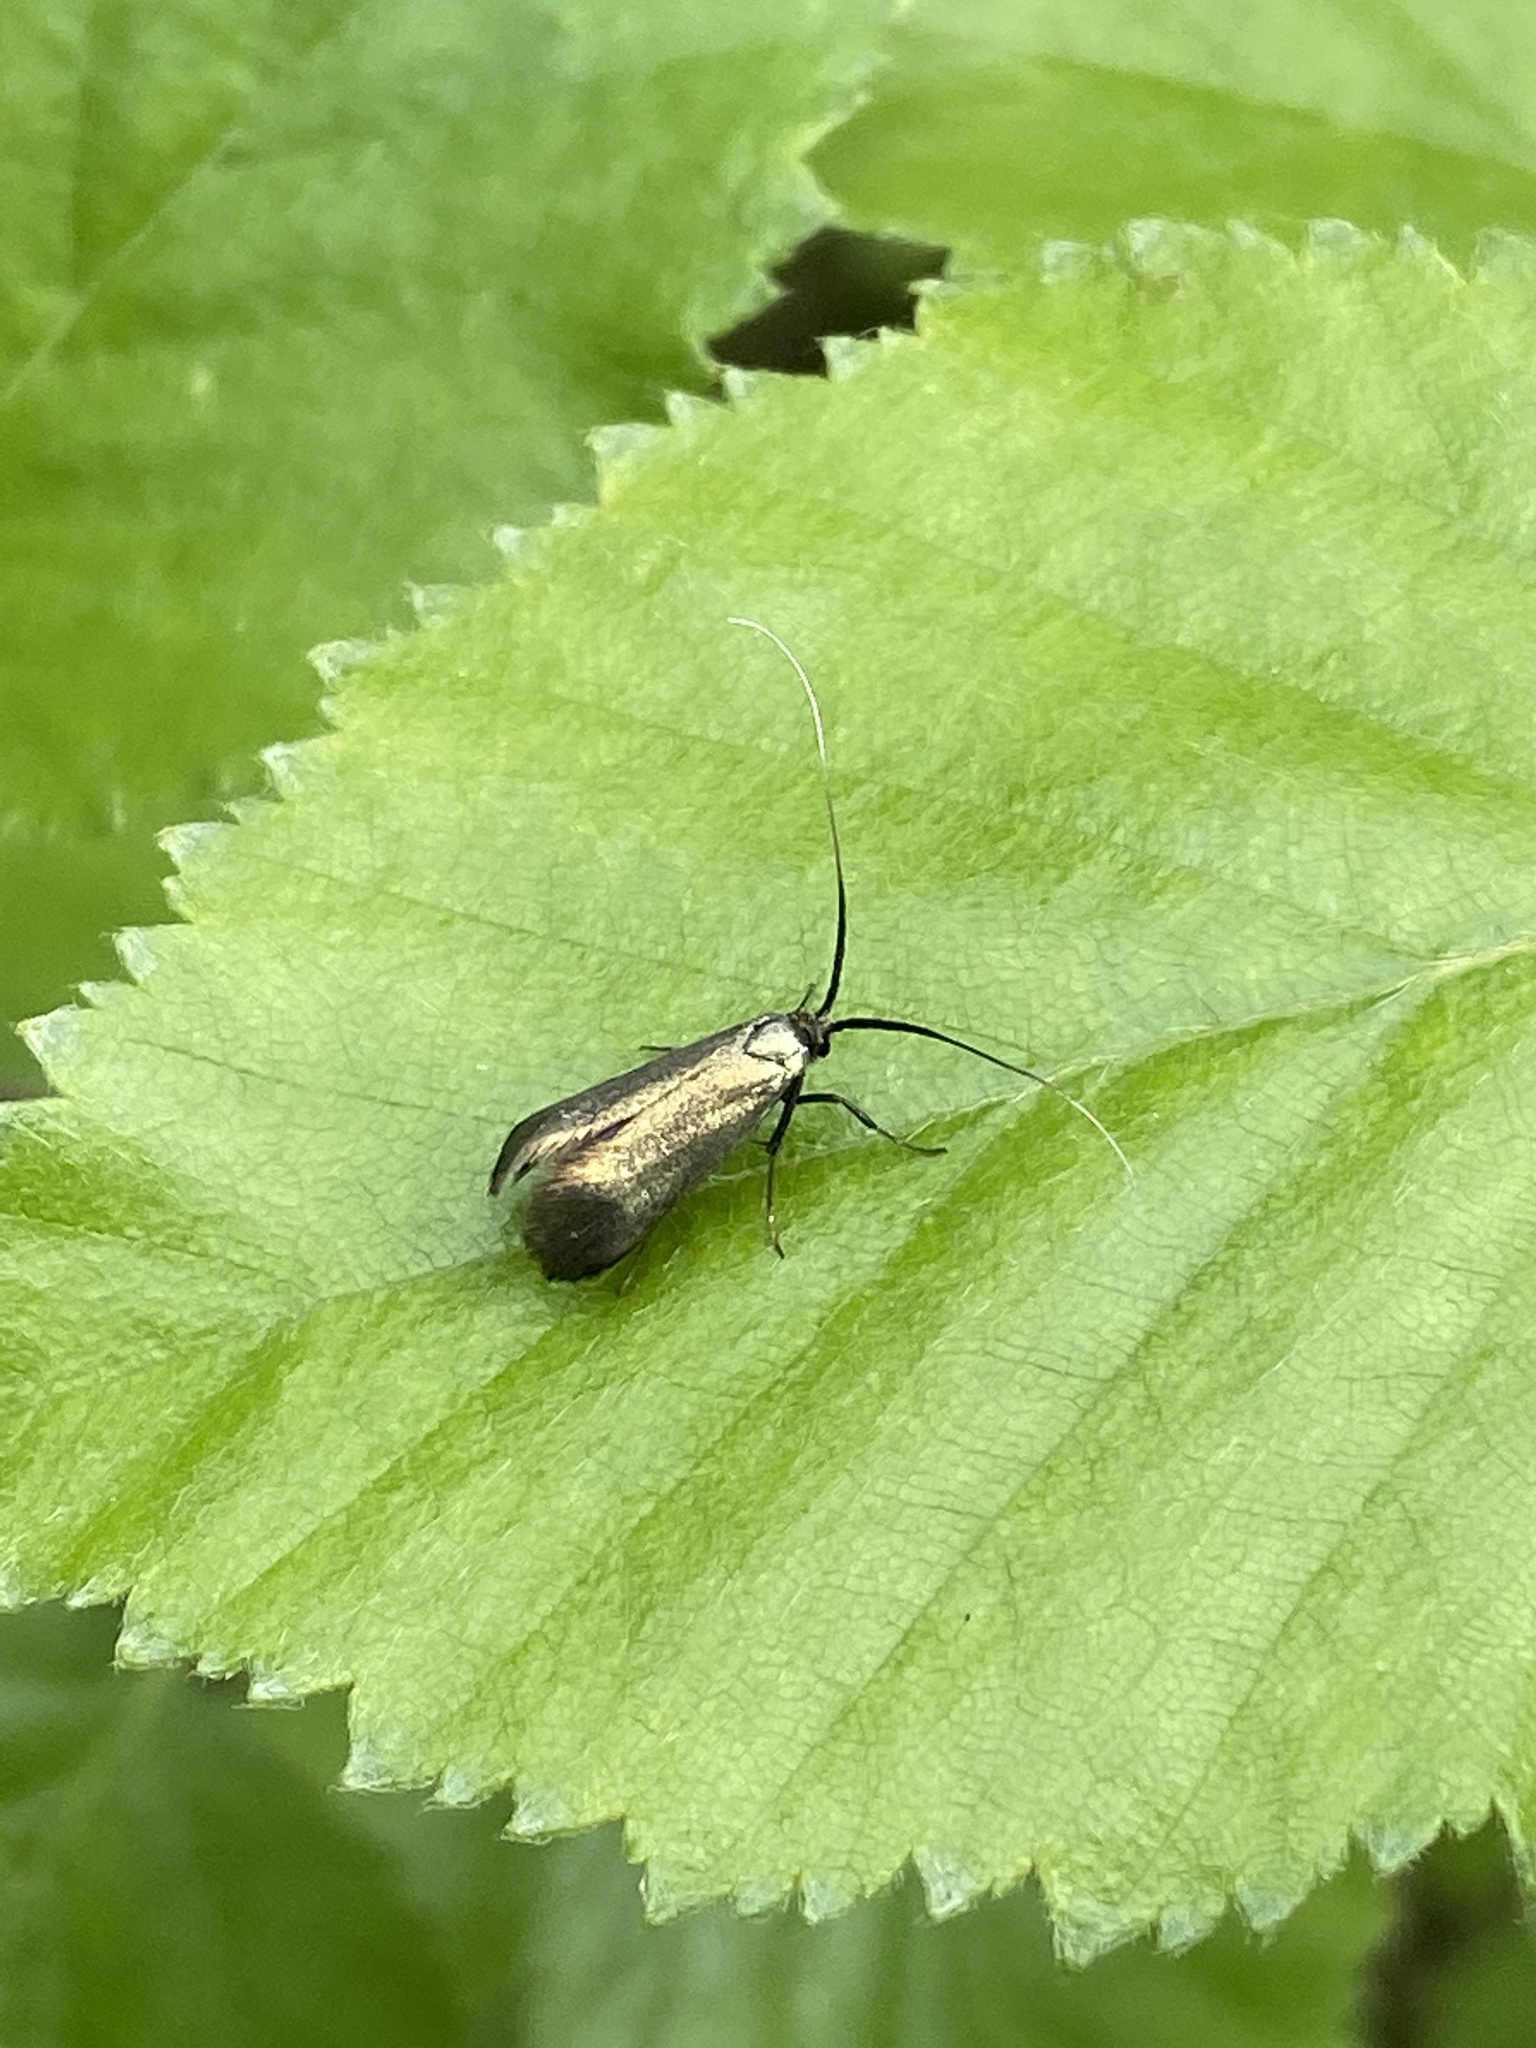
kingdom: Animalia
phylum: Arthropoda
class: Insecta
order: Lepidoptera
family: Adelidae
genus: Adela
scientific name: Adela viridella
